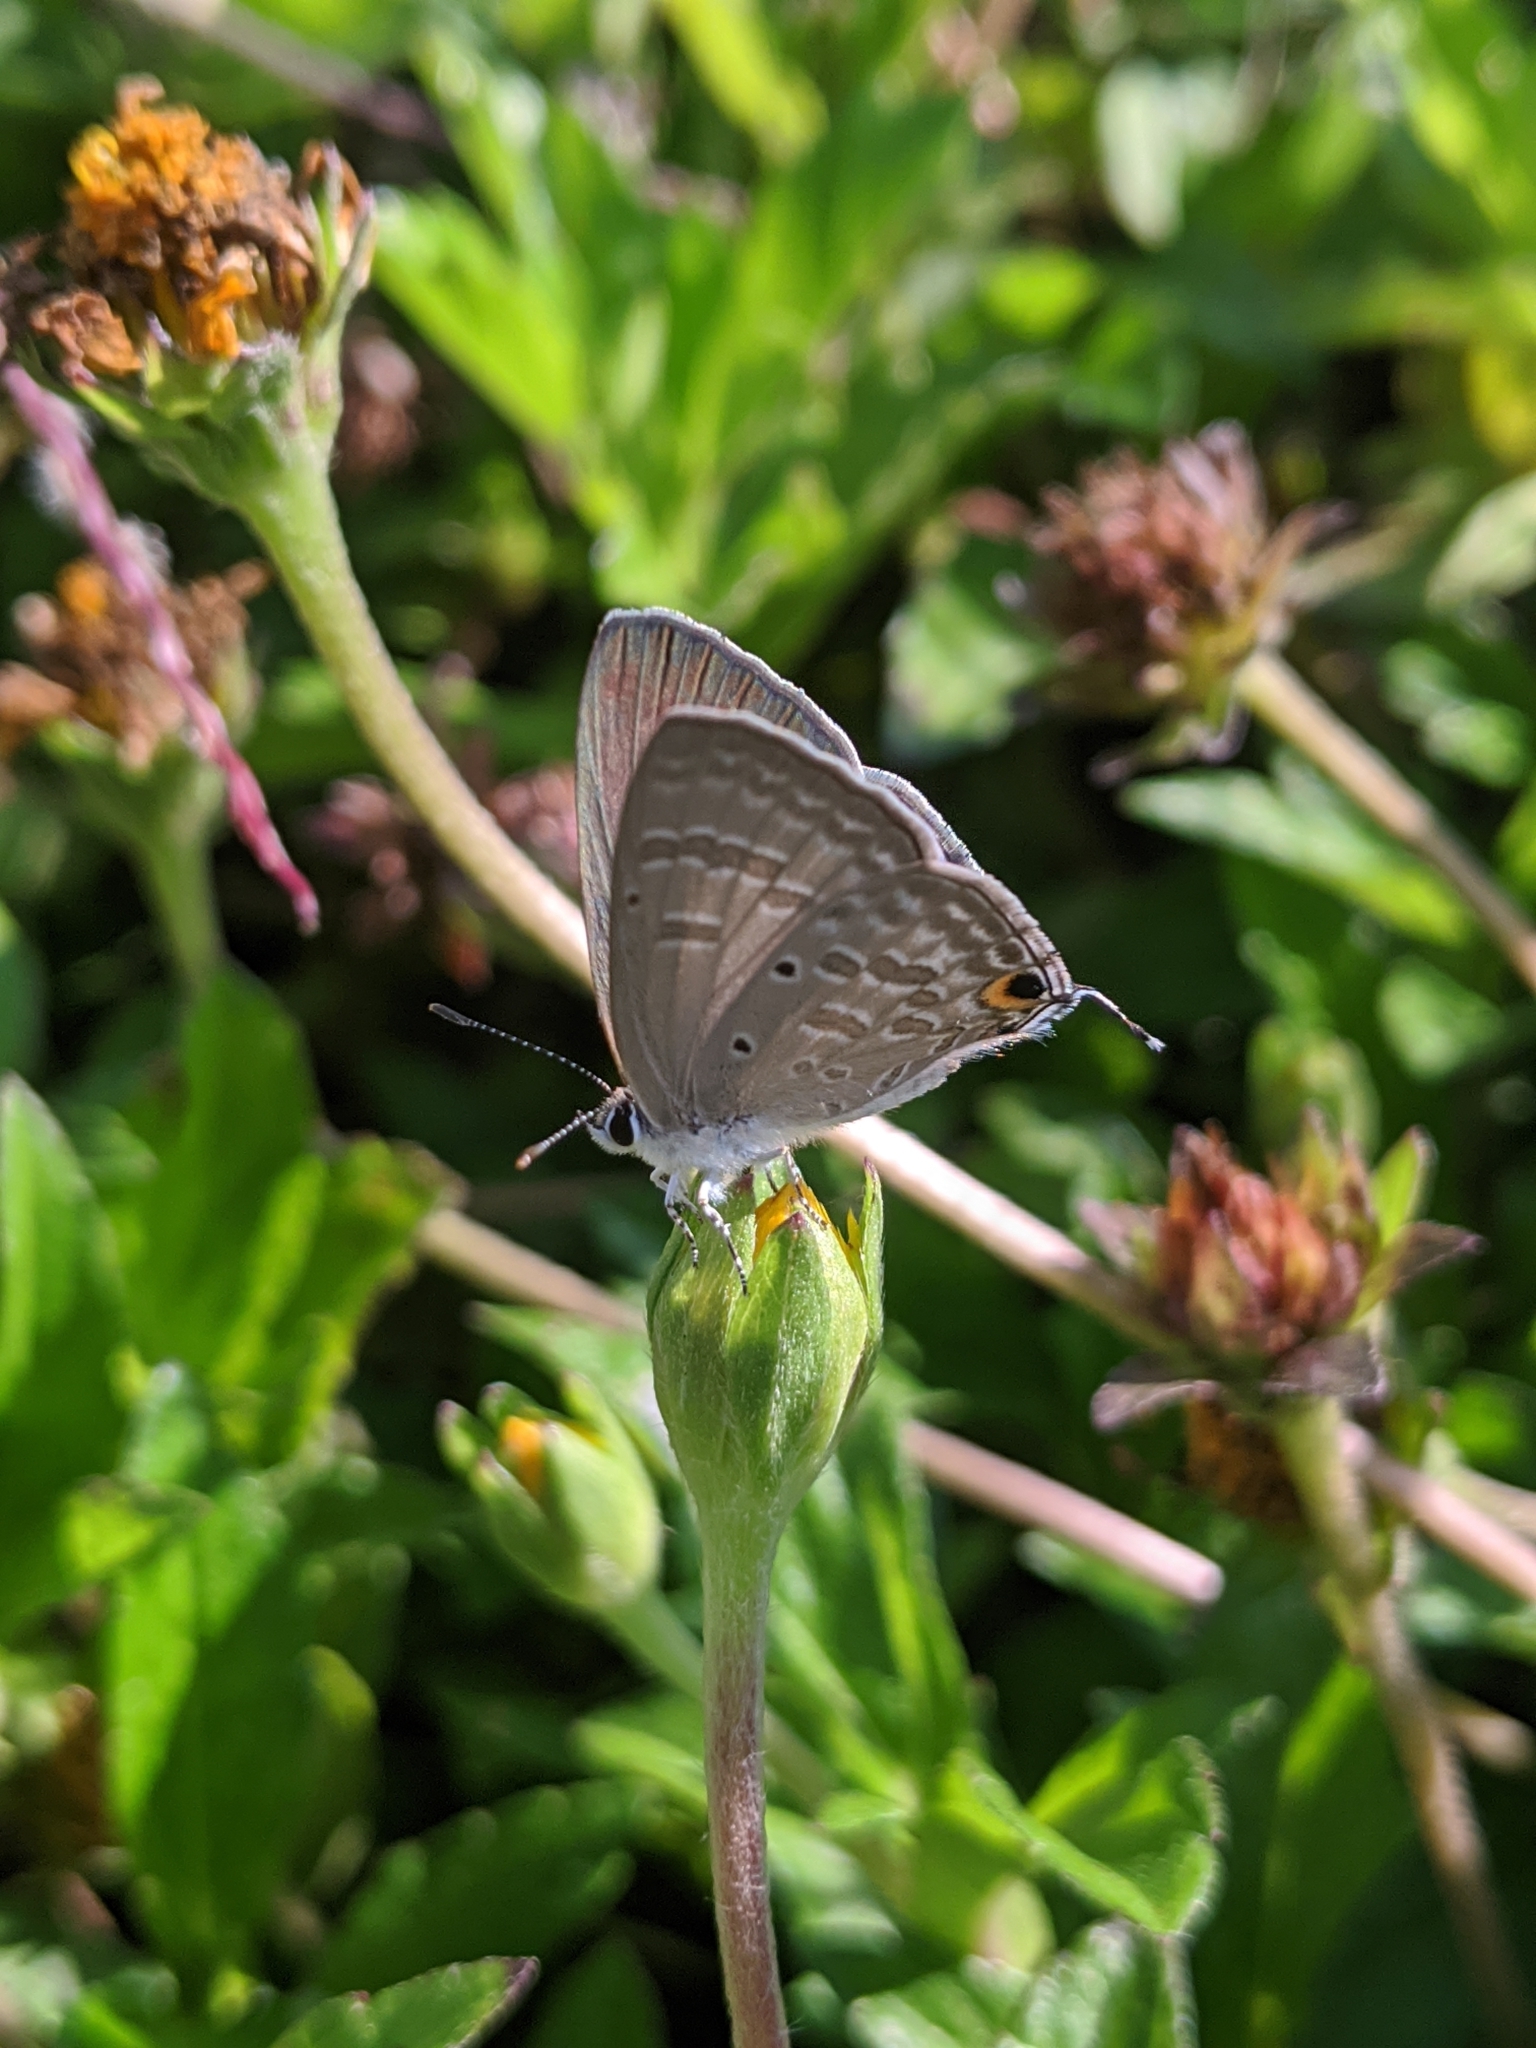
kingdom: Animalia
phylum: Arthropoda
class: Insecta
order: Lepidoptera
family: Lycaenidae
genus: Catochrysops
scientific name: Catochrysops strabo
